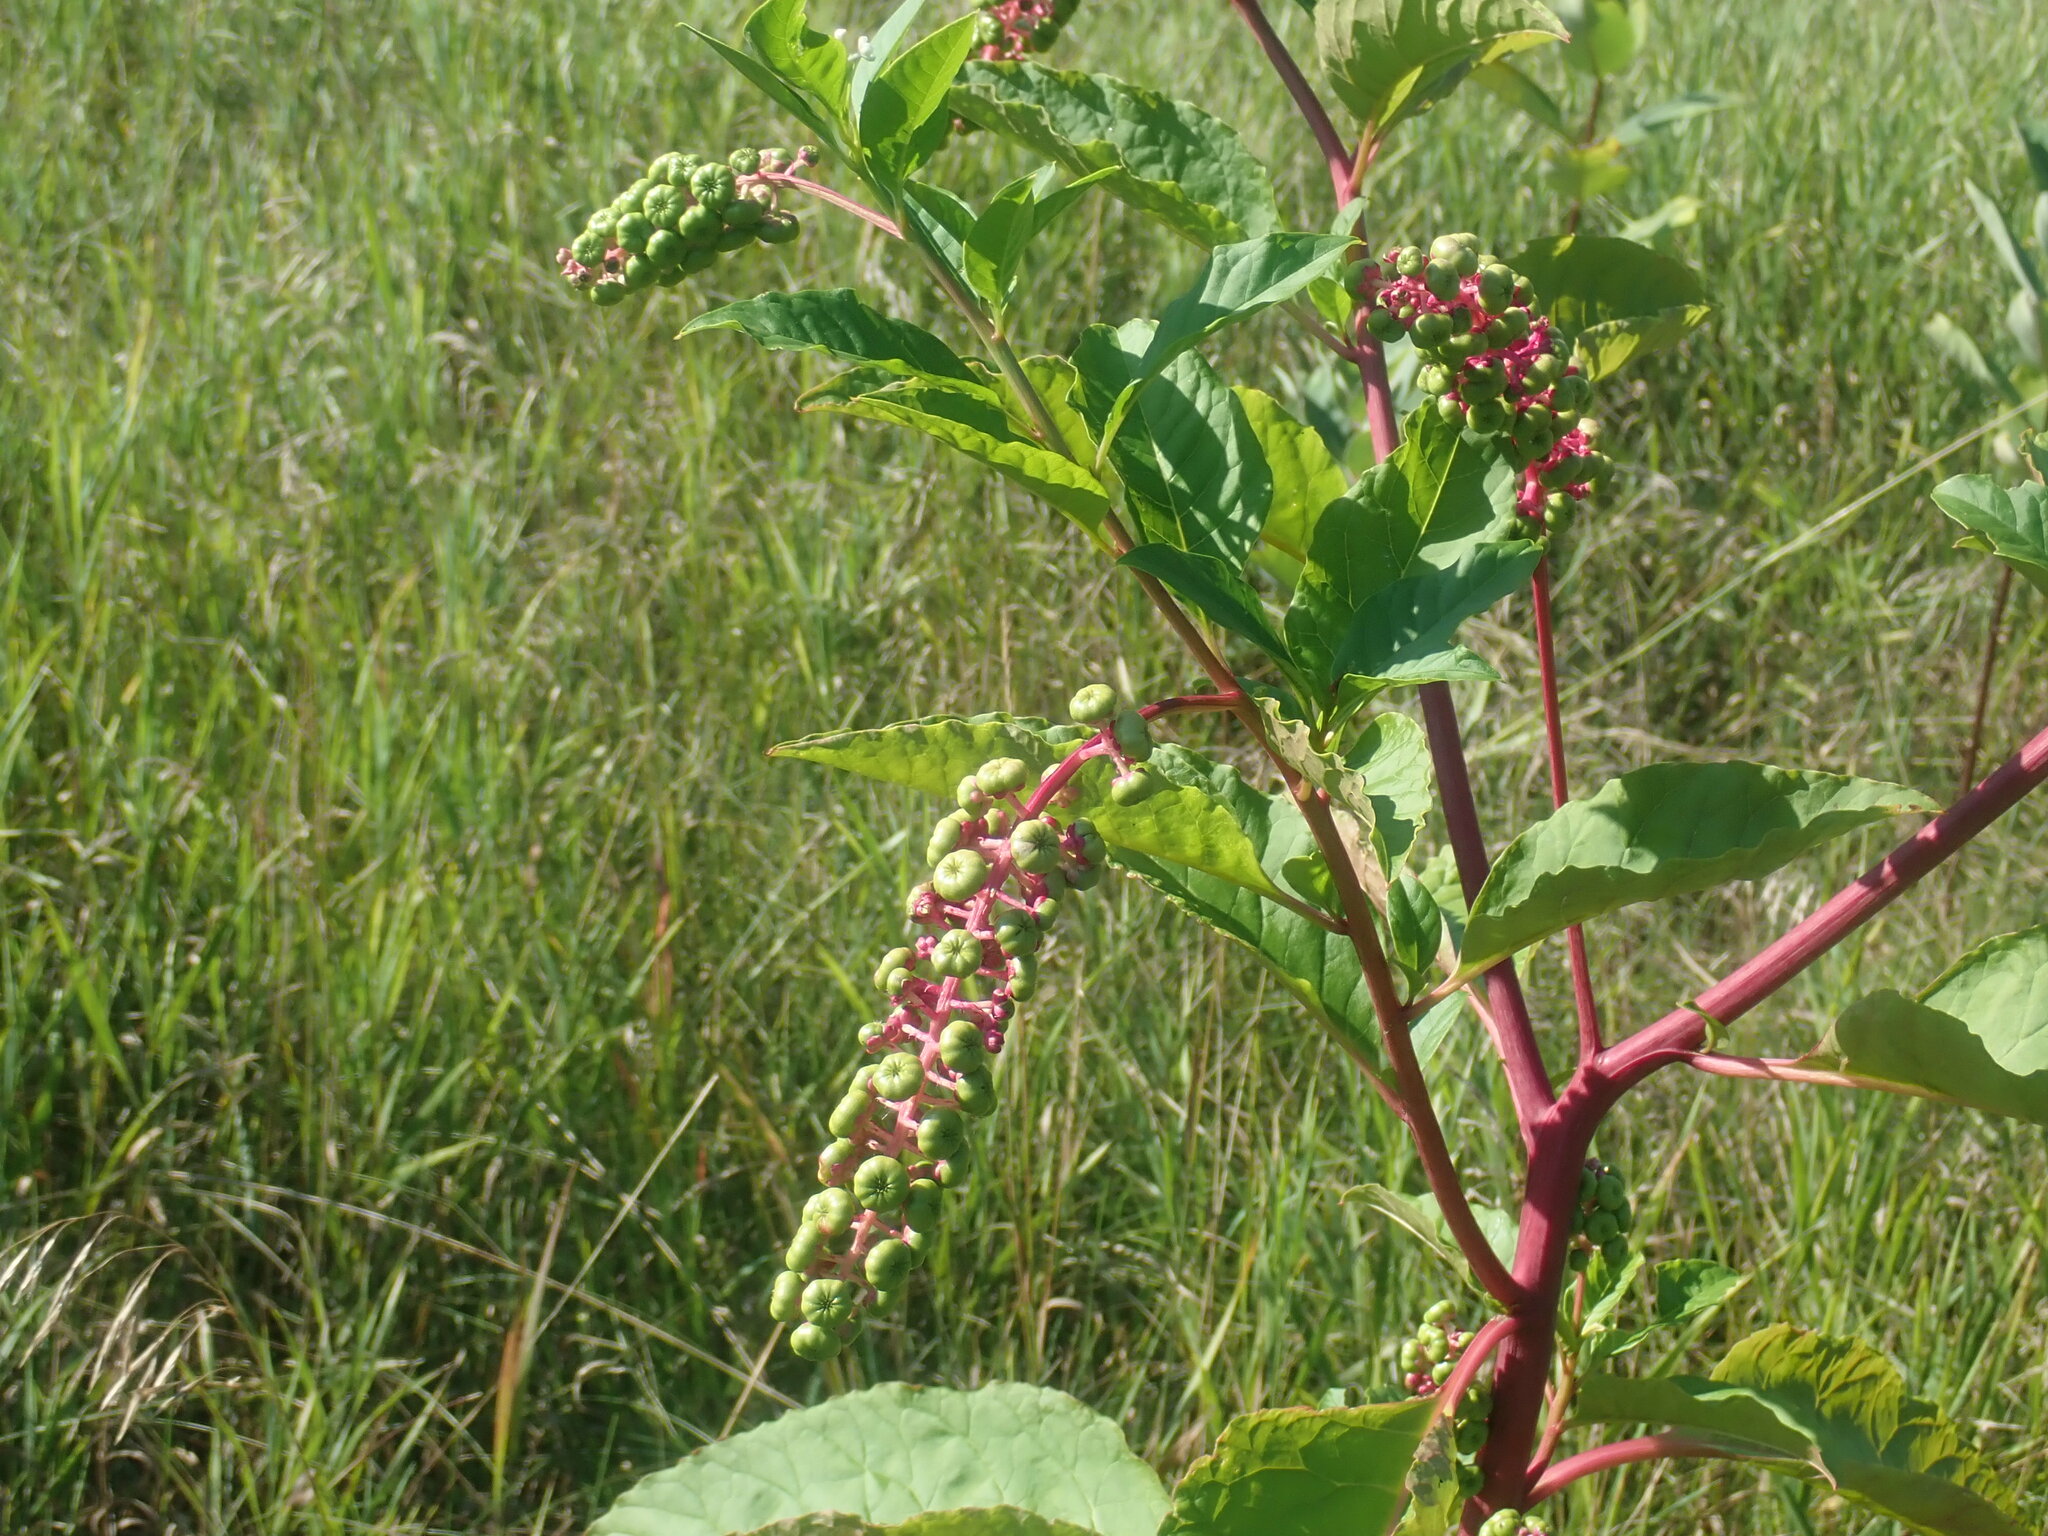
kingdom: Plantae
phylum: Tracheophyta
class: Magnoliopsida
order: Caryophyllales
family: Phytolaccaceae
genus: Phytolacca
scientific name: Phytolacca americana
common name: American pokeweed
